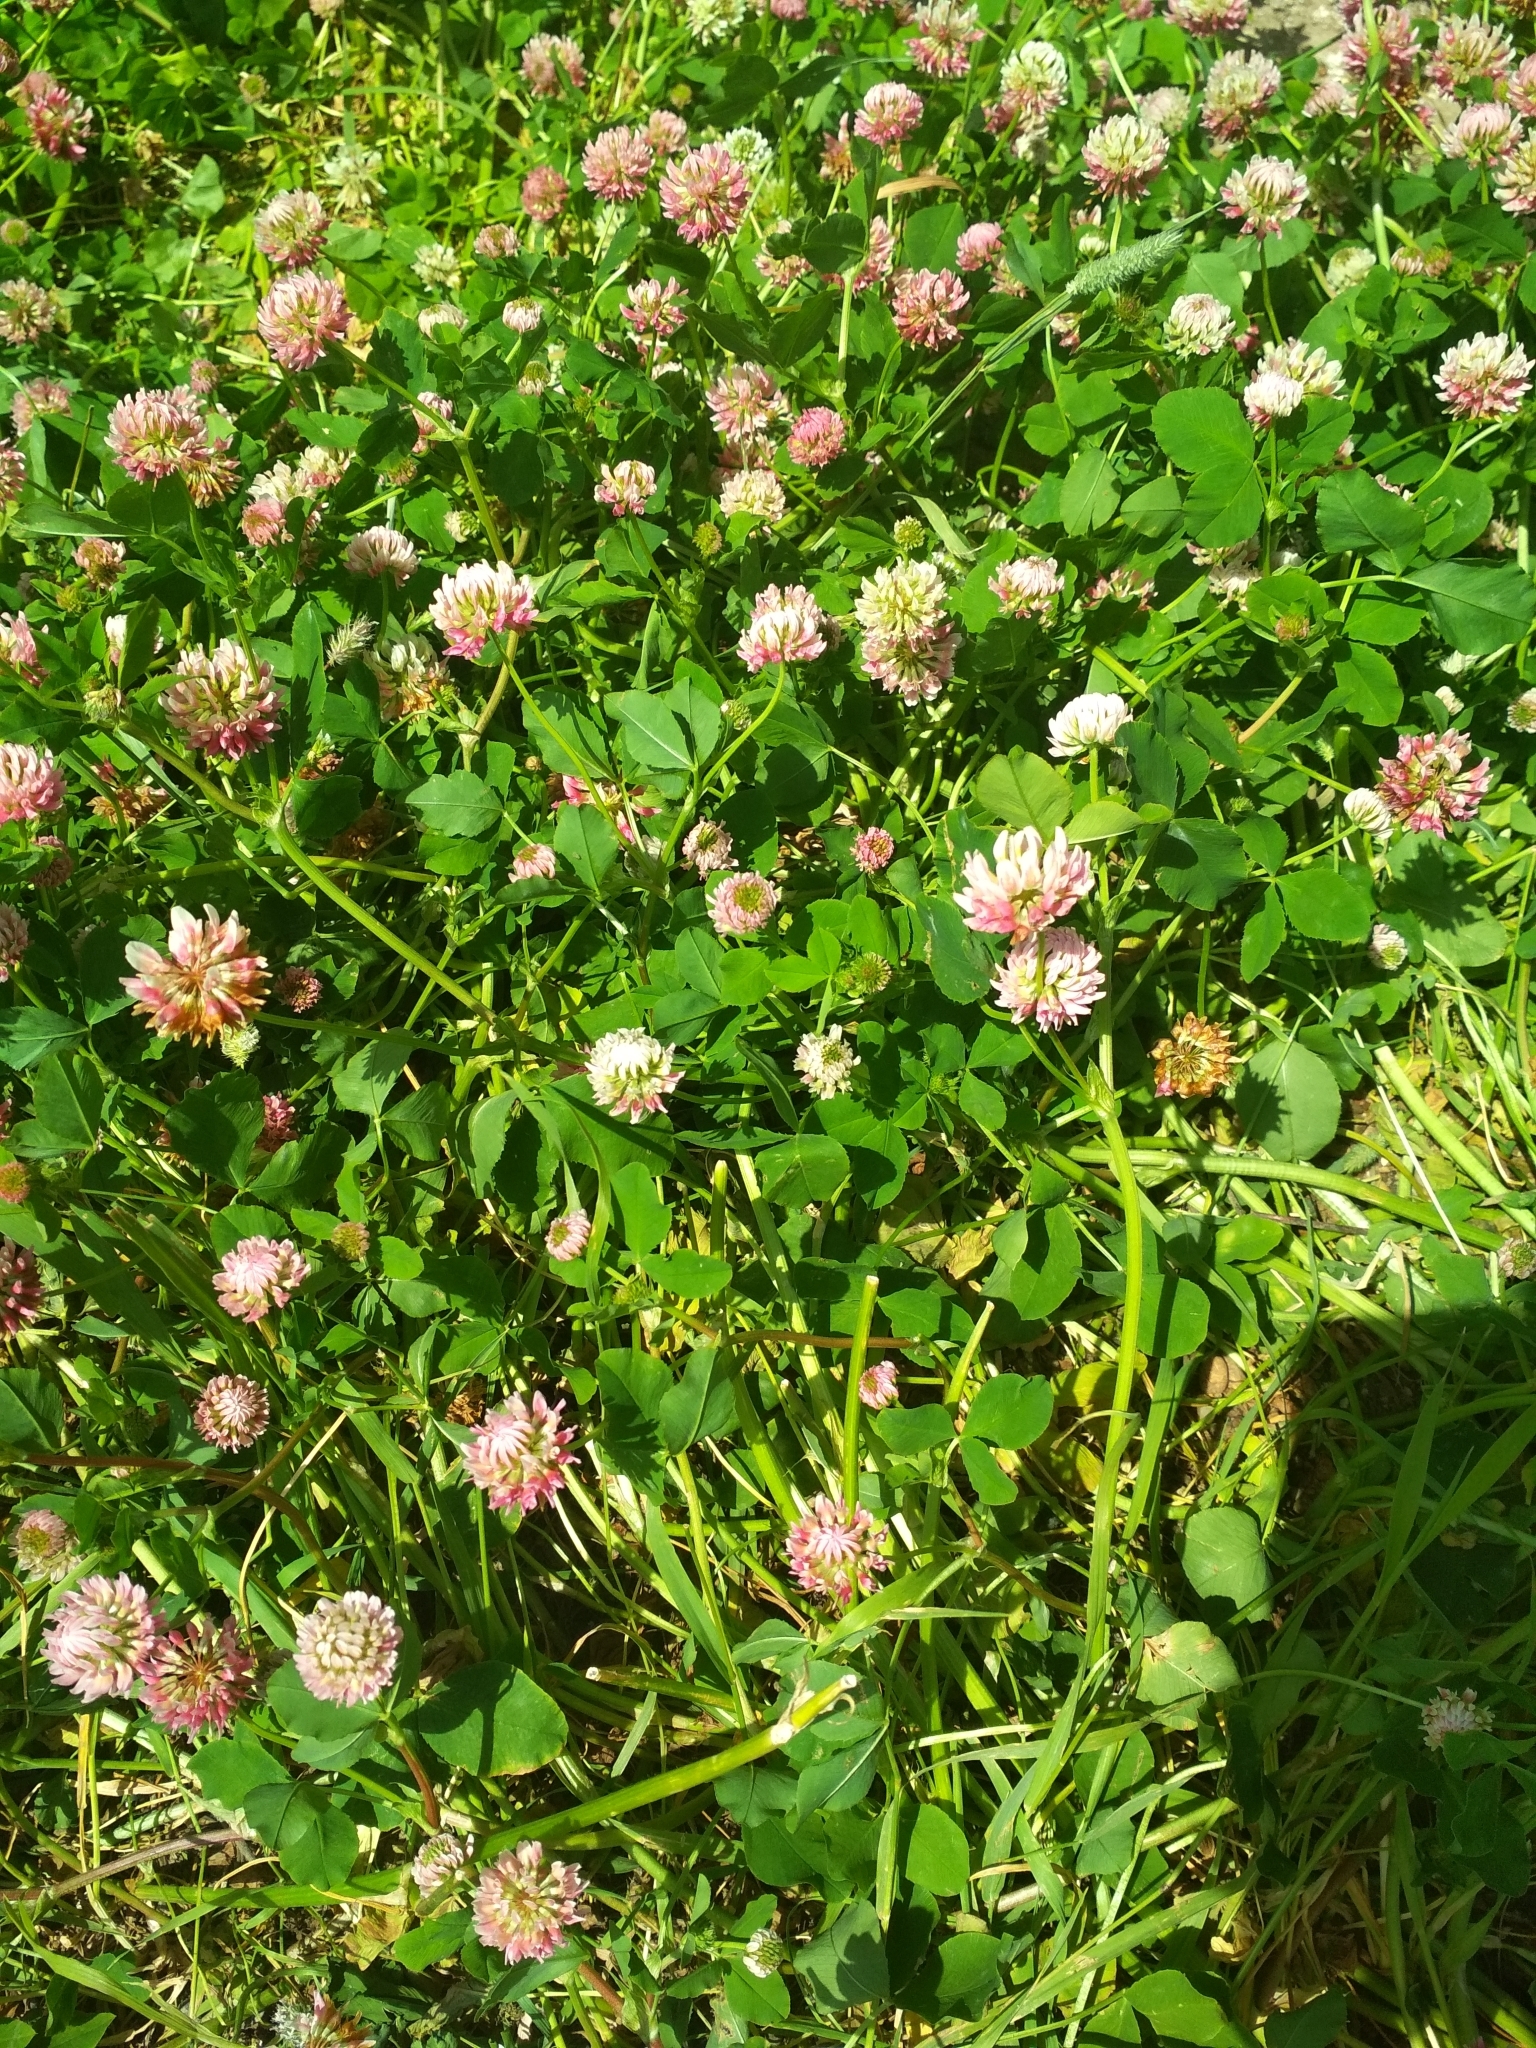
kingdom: Plantae
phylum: Tracheophyta
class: Magnoliopsida
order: Fabales
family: Fabaceae
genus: Trifolium
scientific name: Trifolium hybridum
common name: Alsike clover
